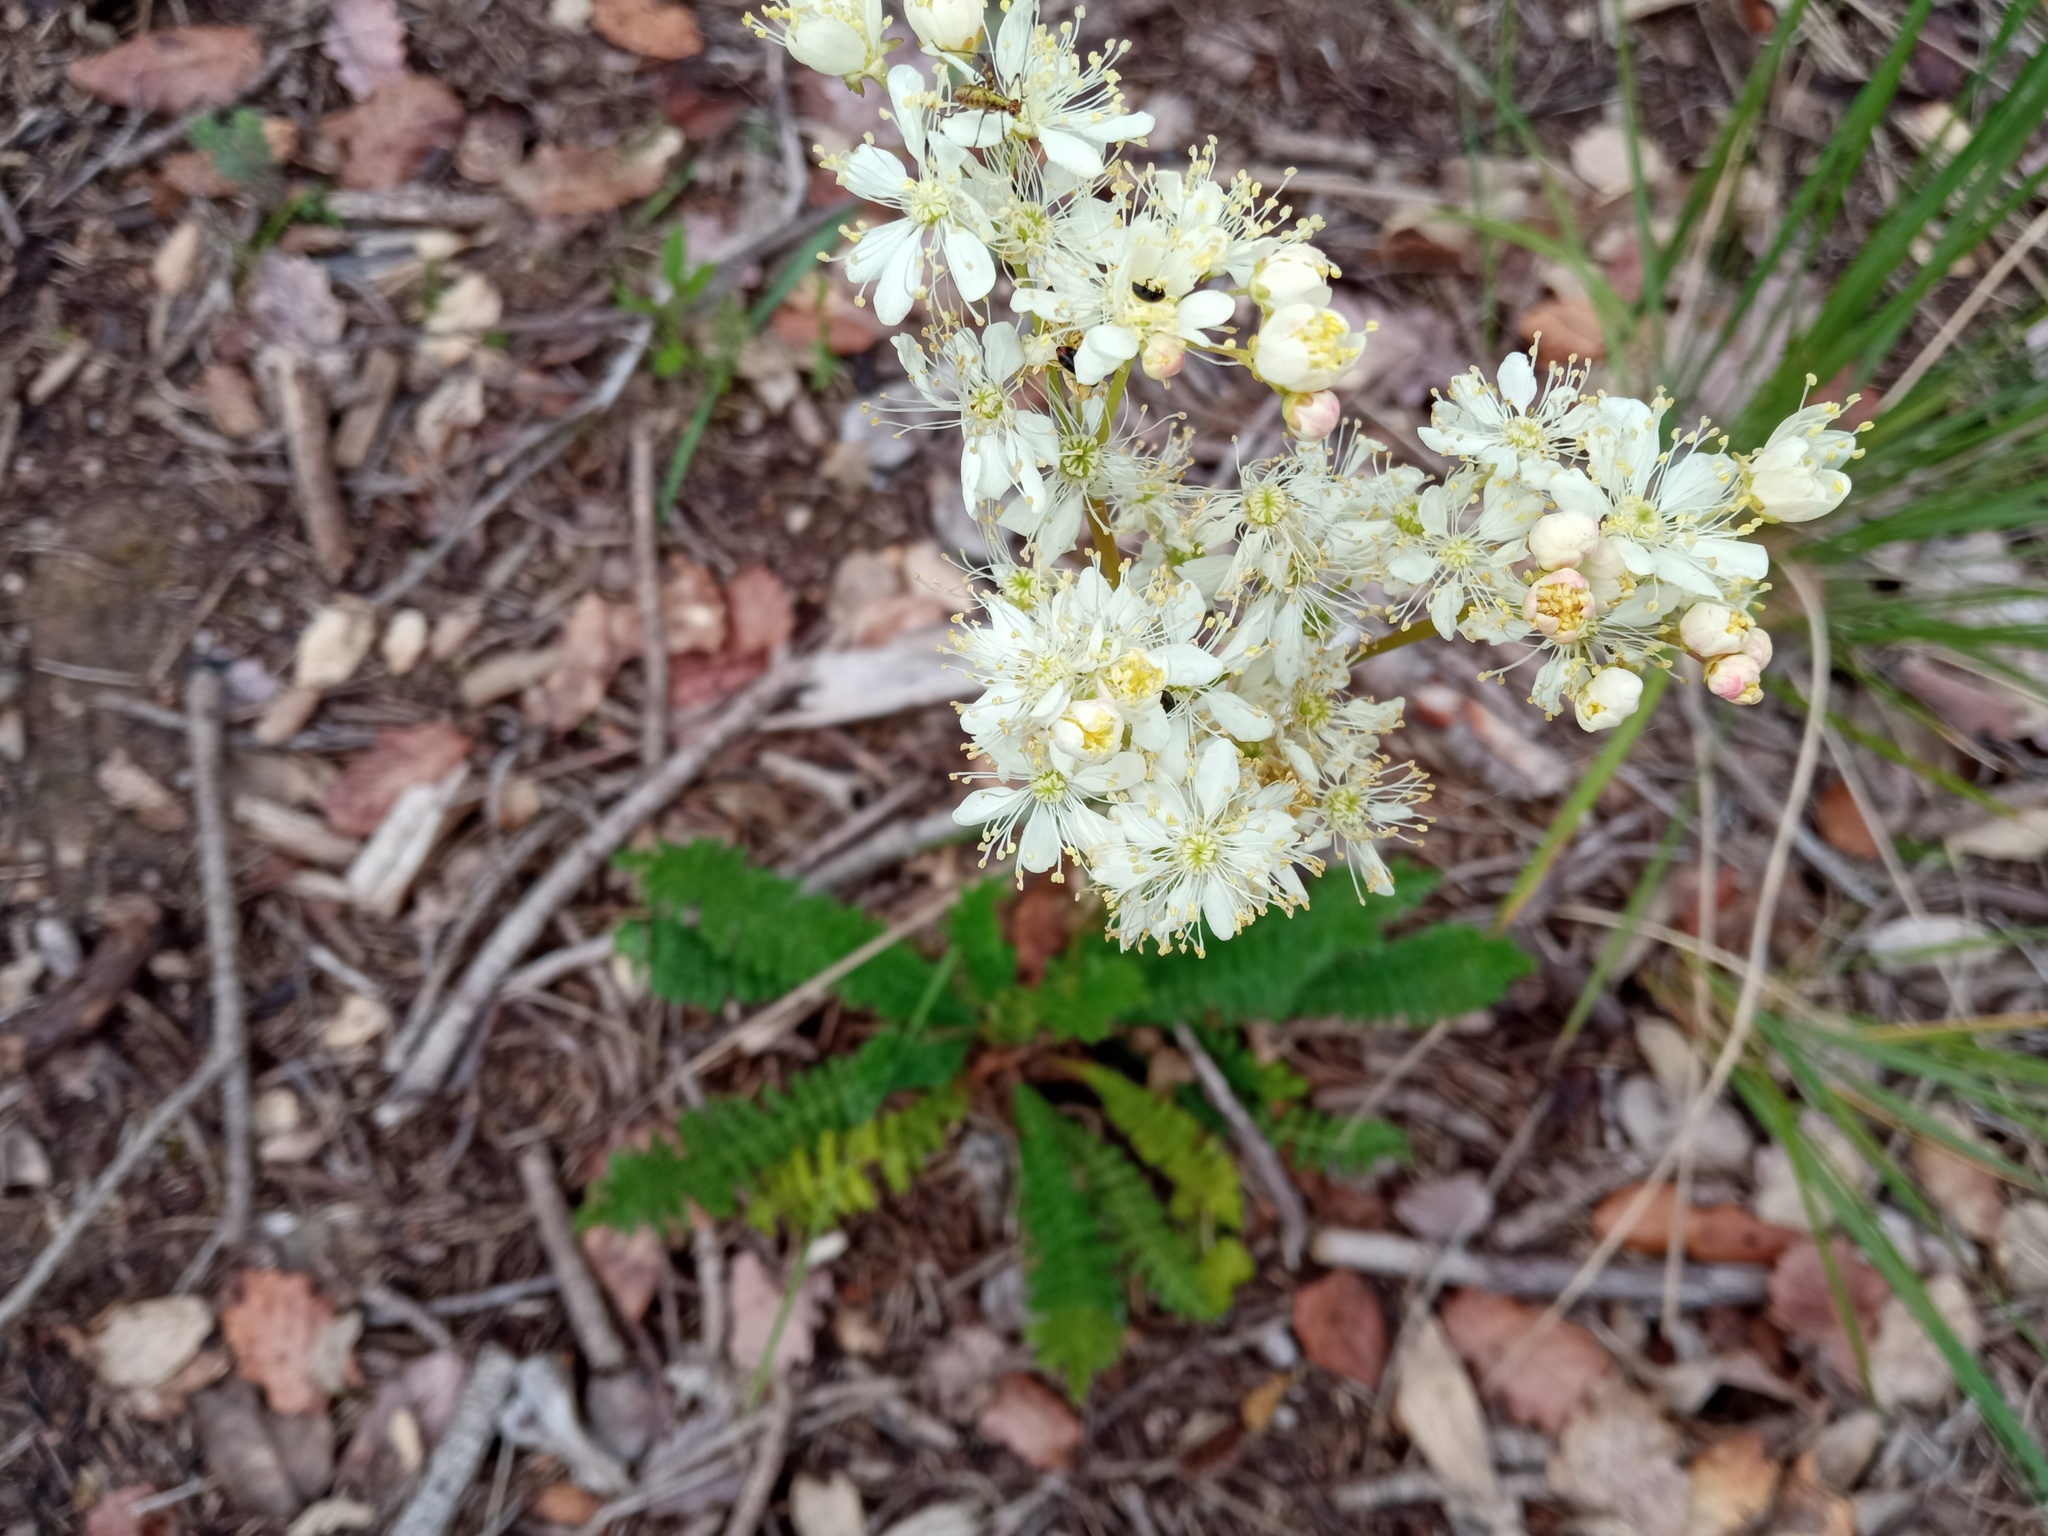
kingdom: Plantae
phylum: Tracheophyta
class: Magnoliopsida
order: Rosales
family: Rosaceae
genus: Filipendula
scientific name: Filipendula vulgaris
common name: Dropwort
